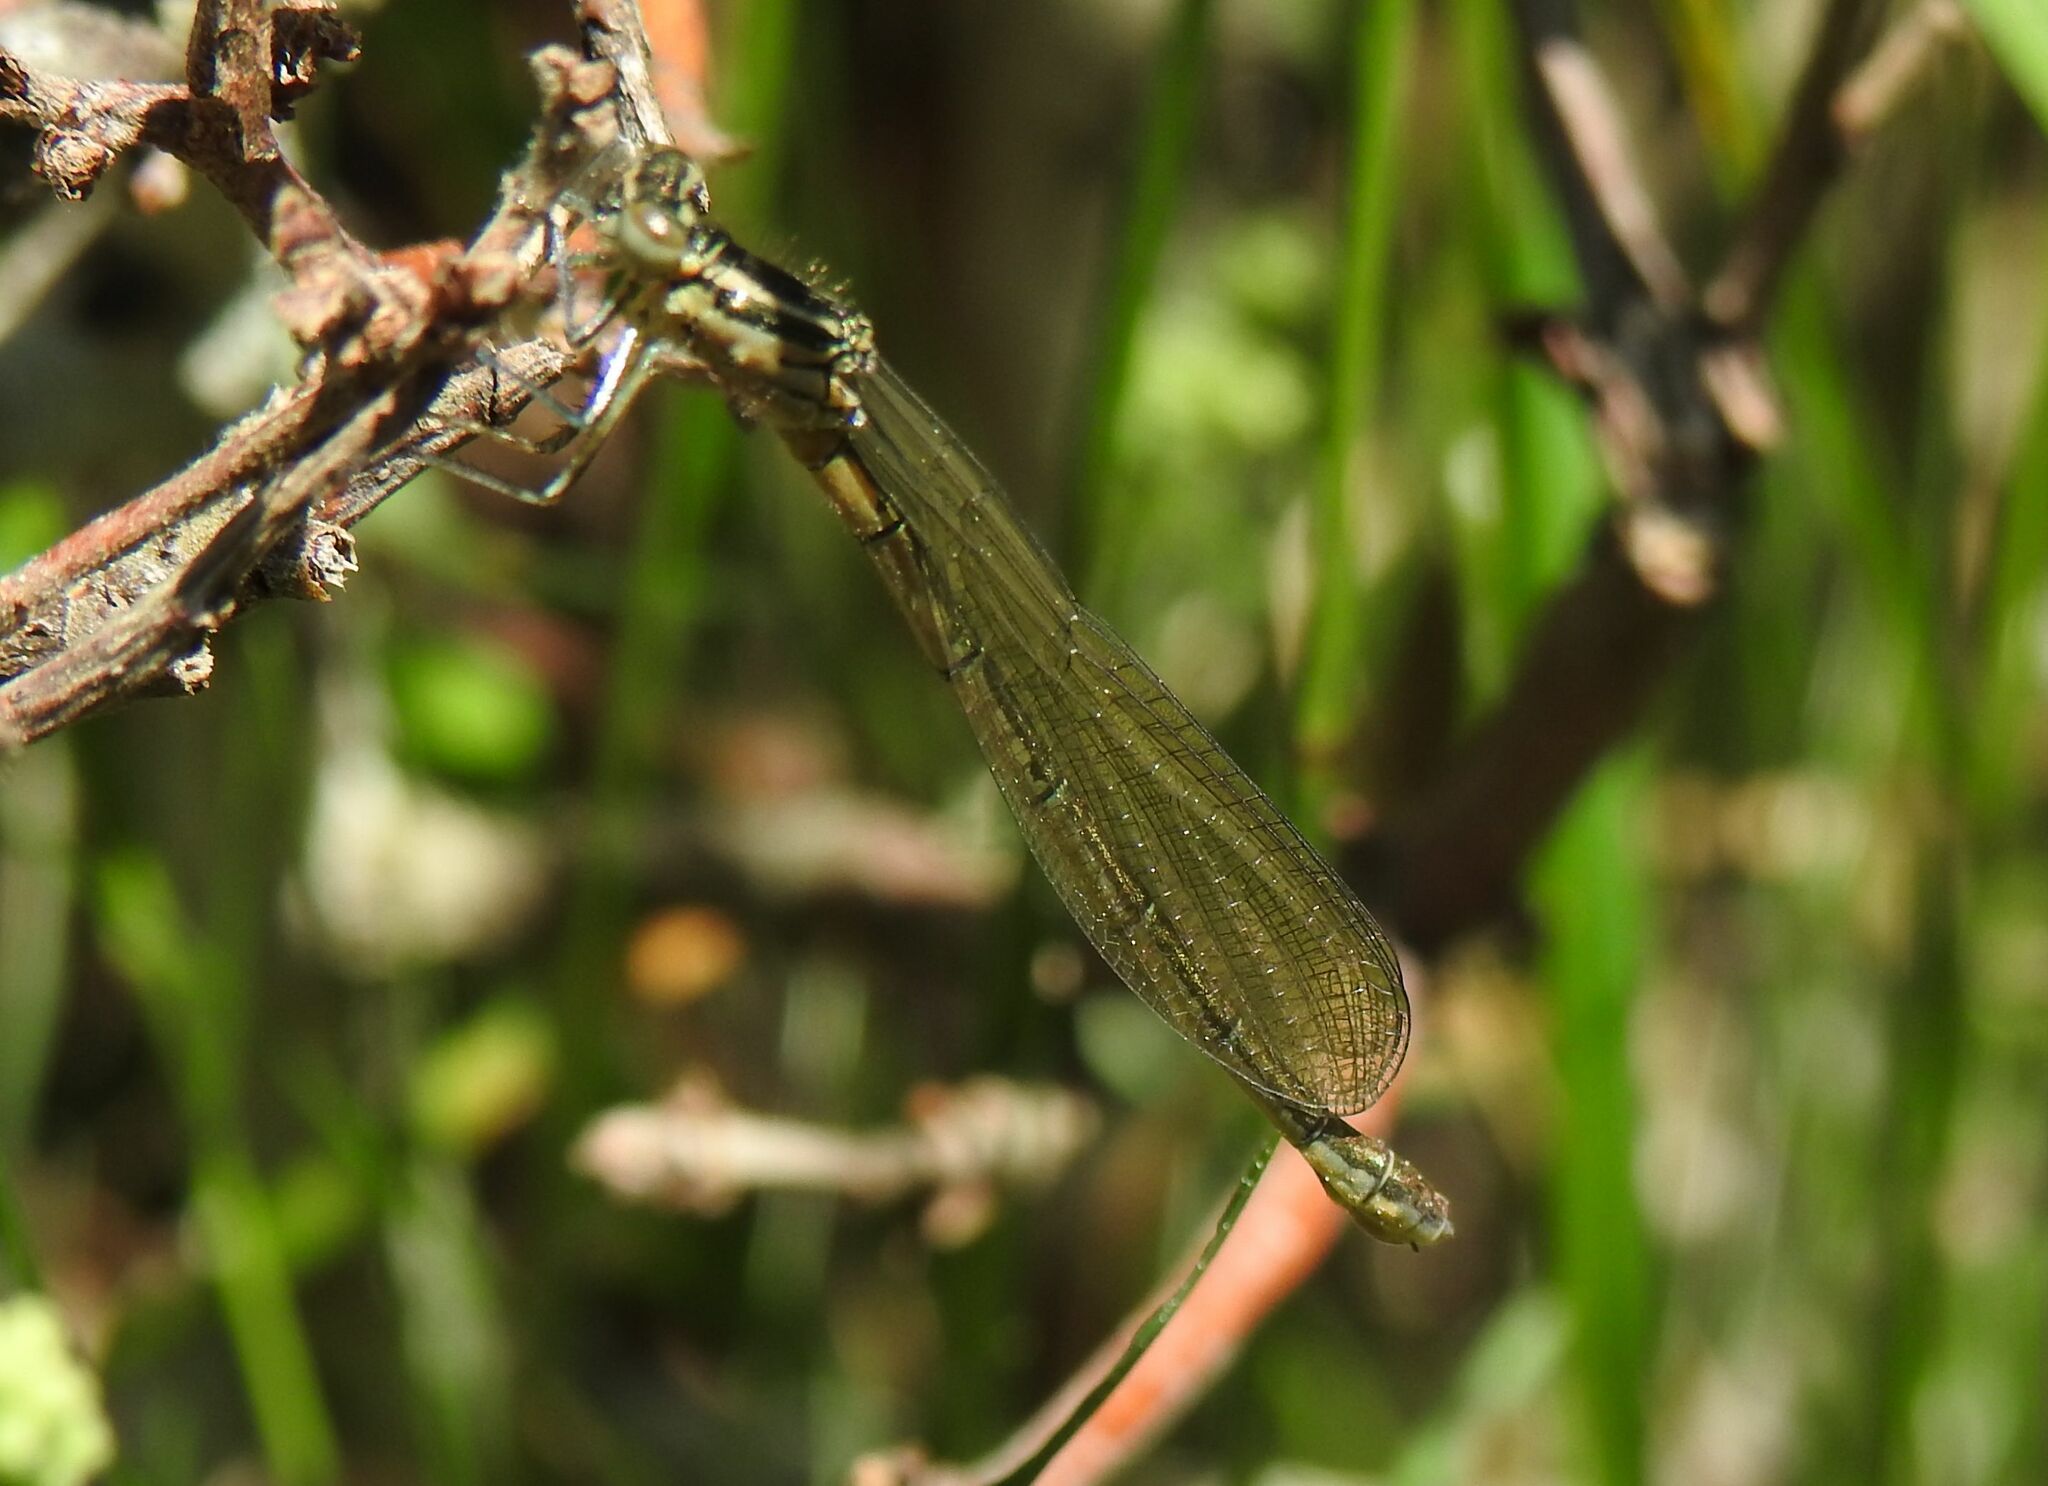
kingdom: Animalia
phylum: Arthropoda
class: Insecta
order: Odonata
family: Coenagrionidae
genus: Coenagrion
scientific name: Coenagrion hastulatum
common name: Spearhead bluet
